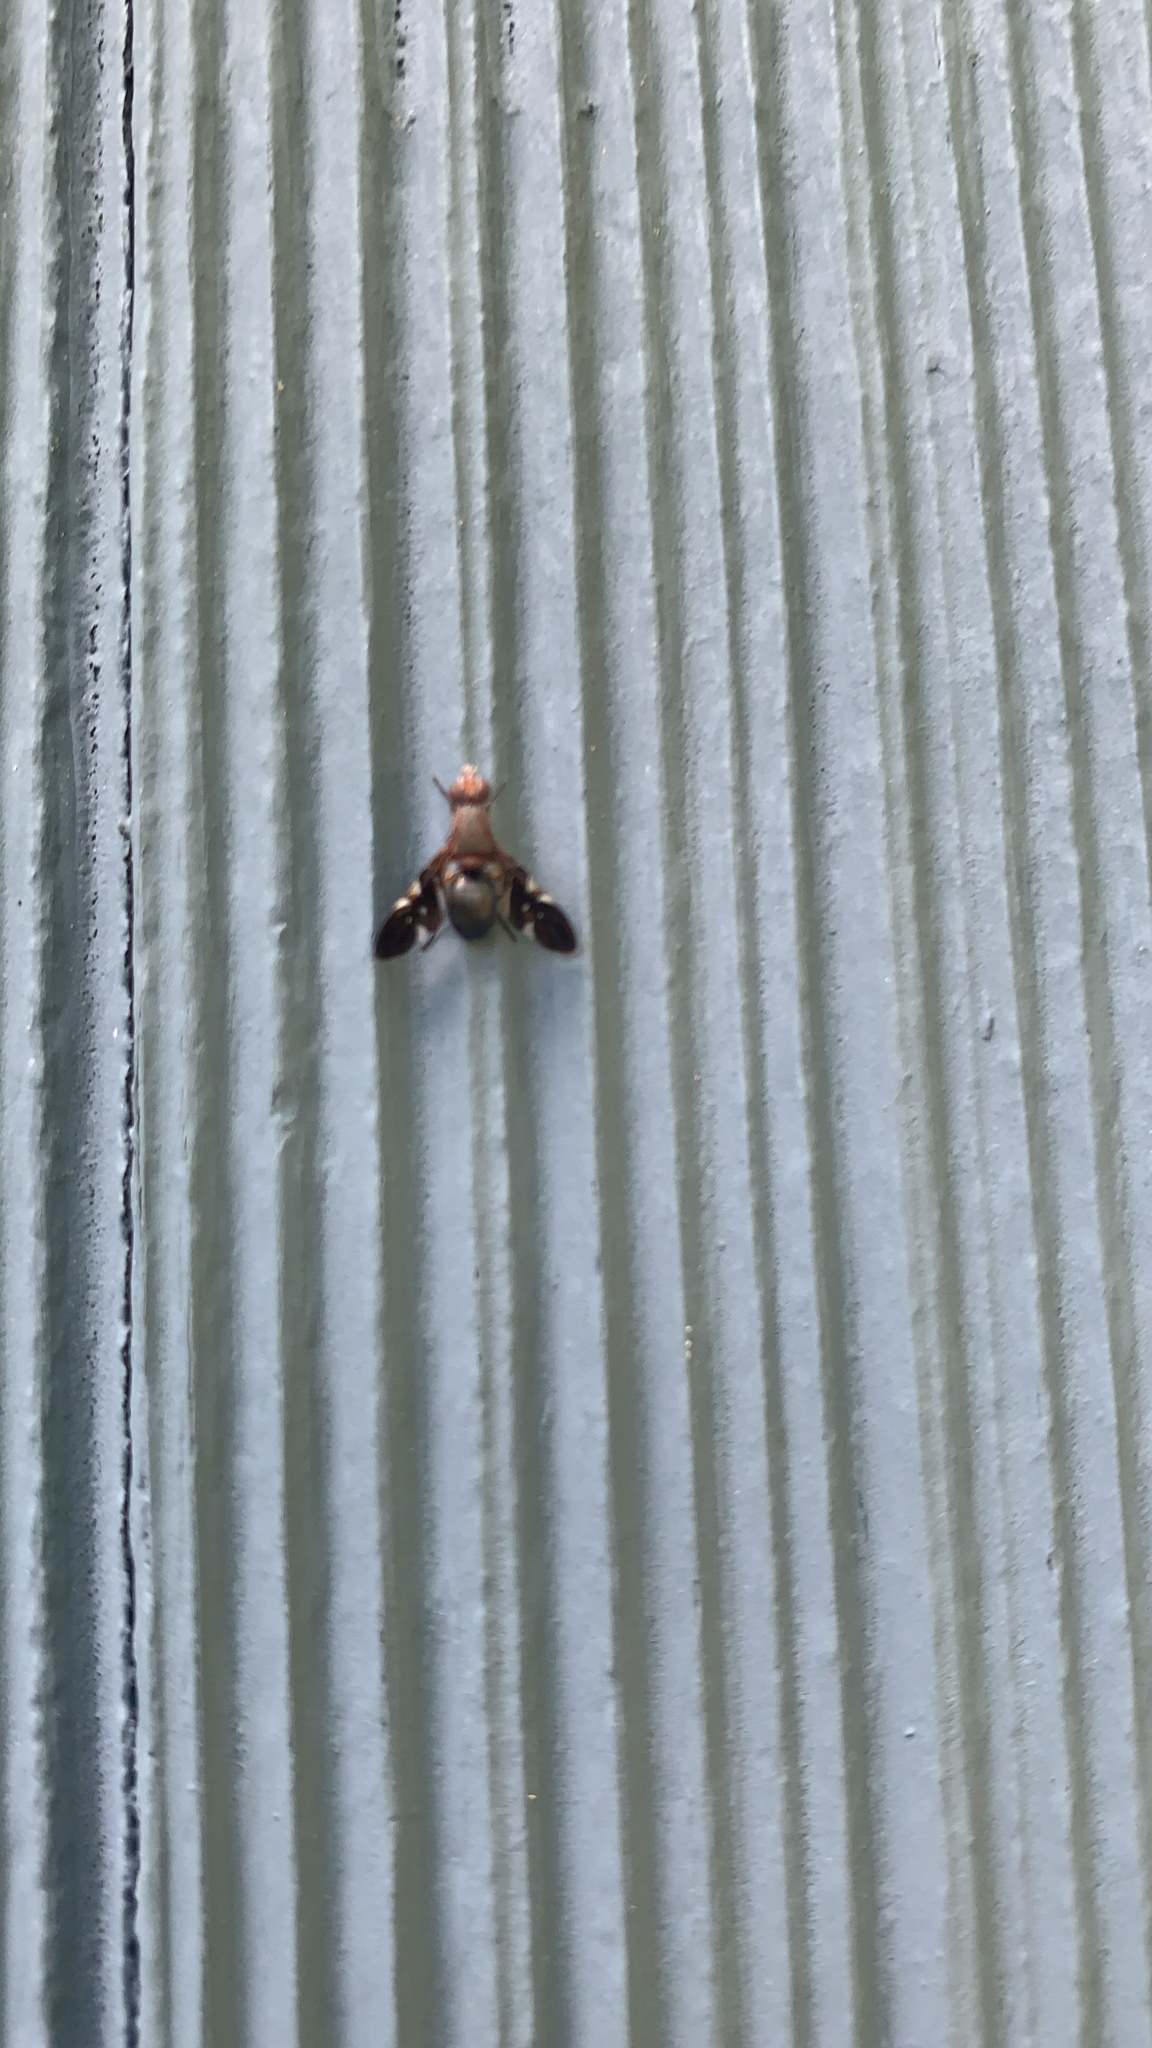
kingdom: Animalia
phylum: Arthropoda
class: Insecta
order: Diptera
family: Ulidiidae
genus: Delphinia
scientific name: Delphinia picta
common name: Common picture-winged fly
